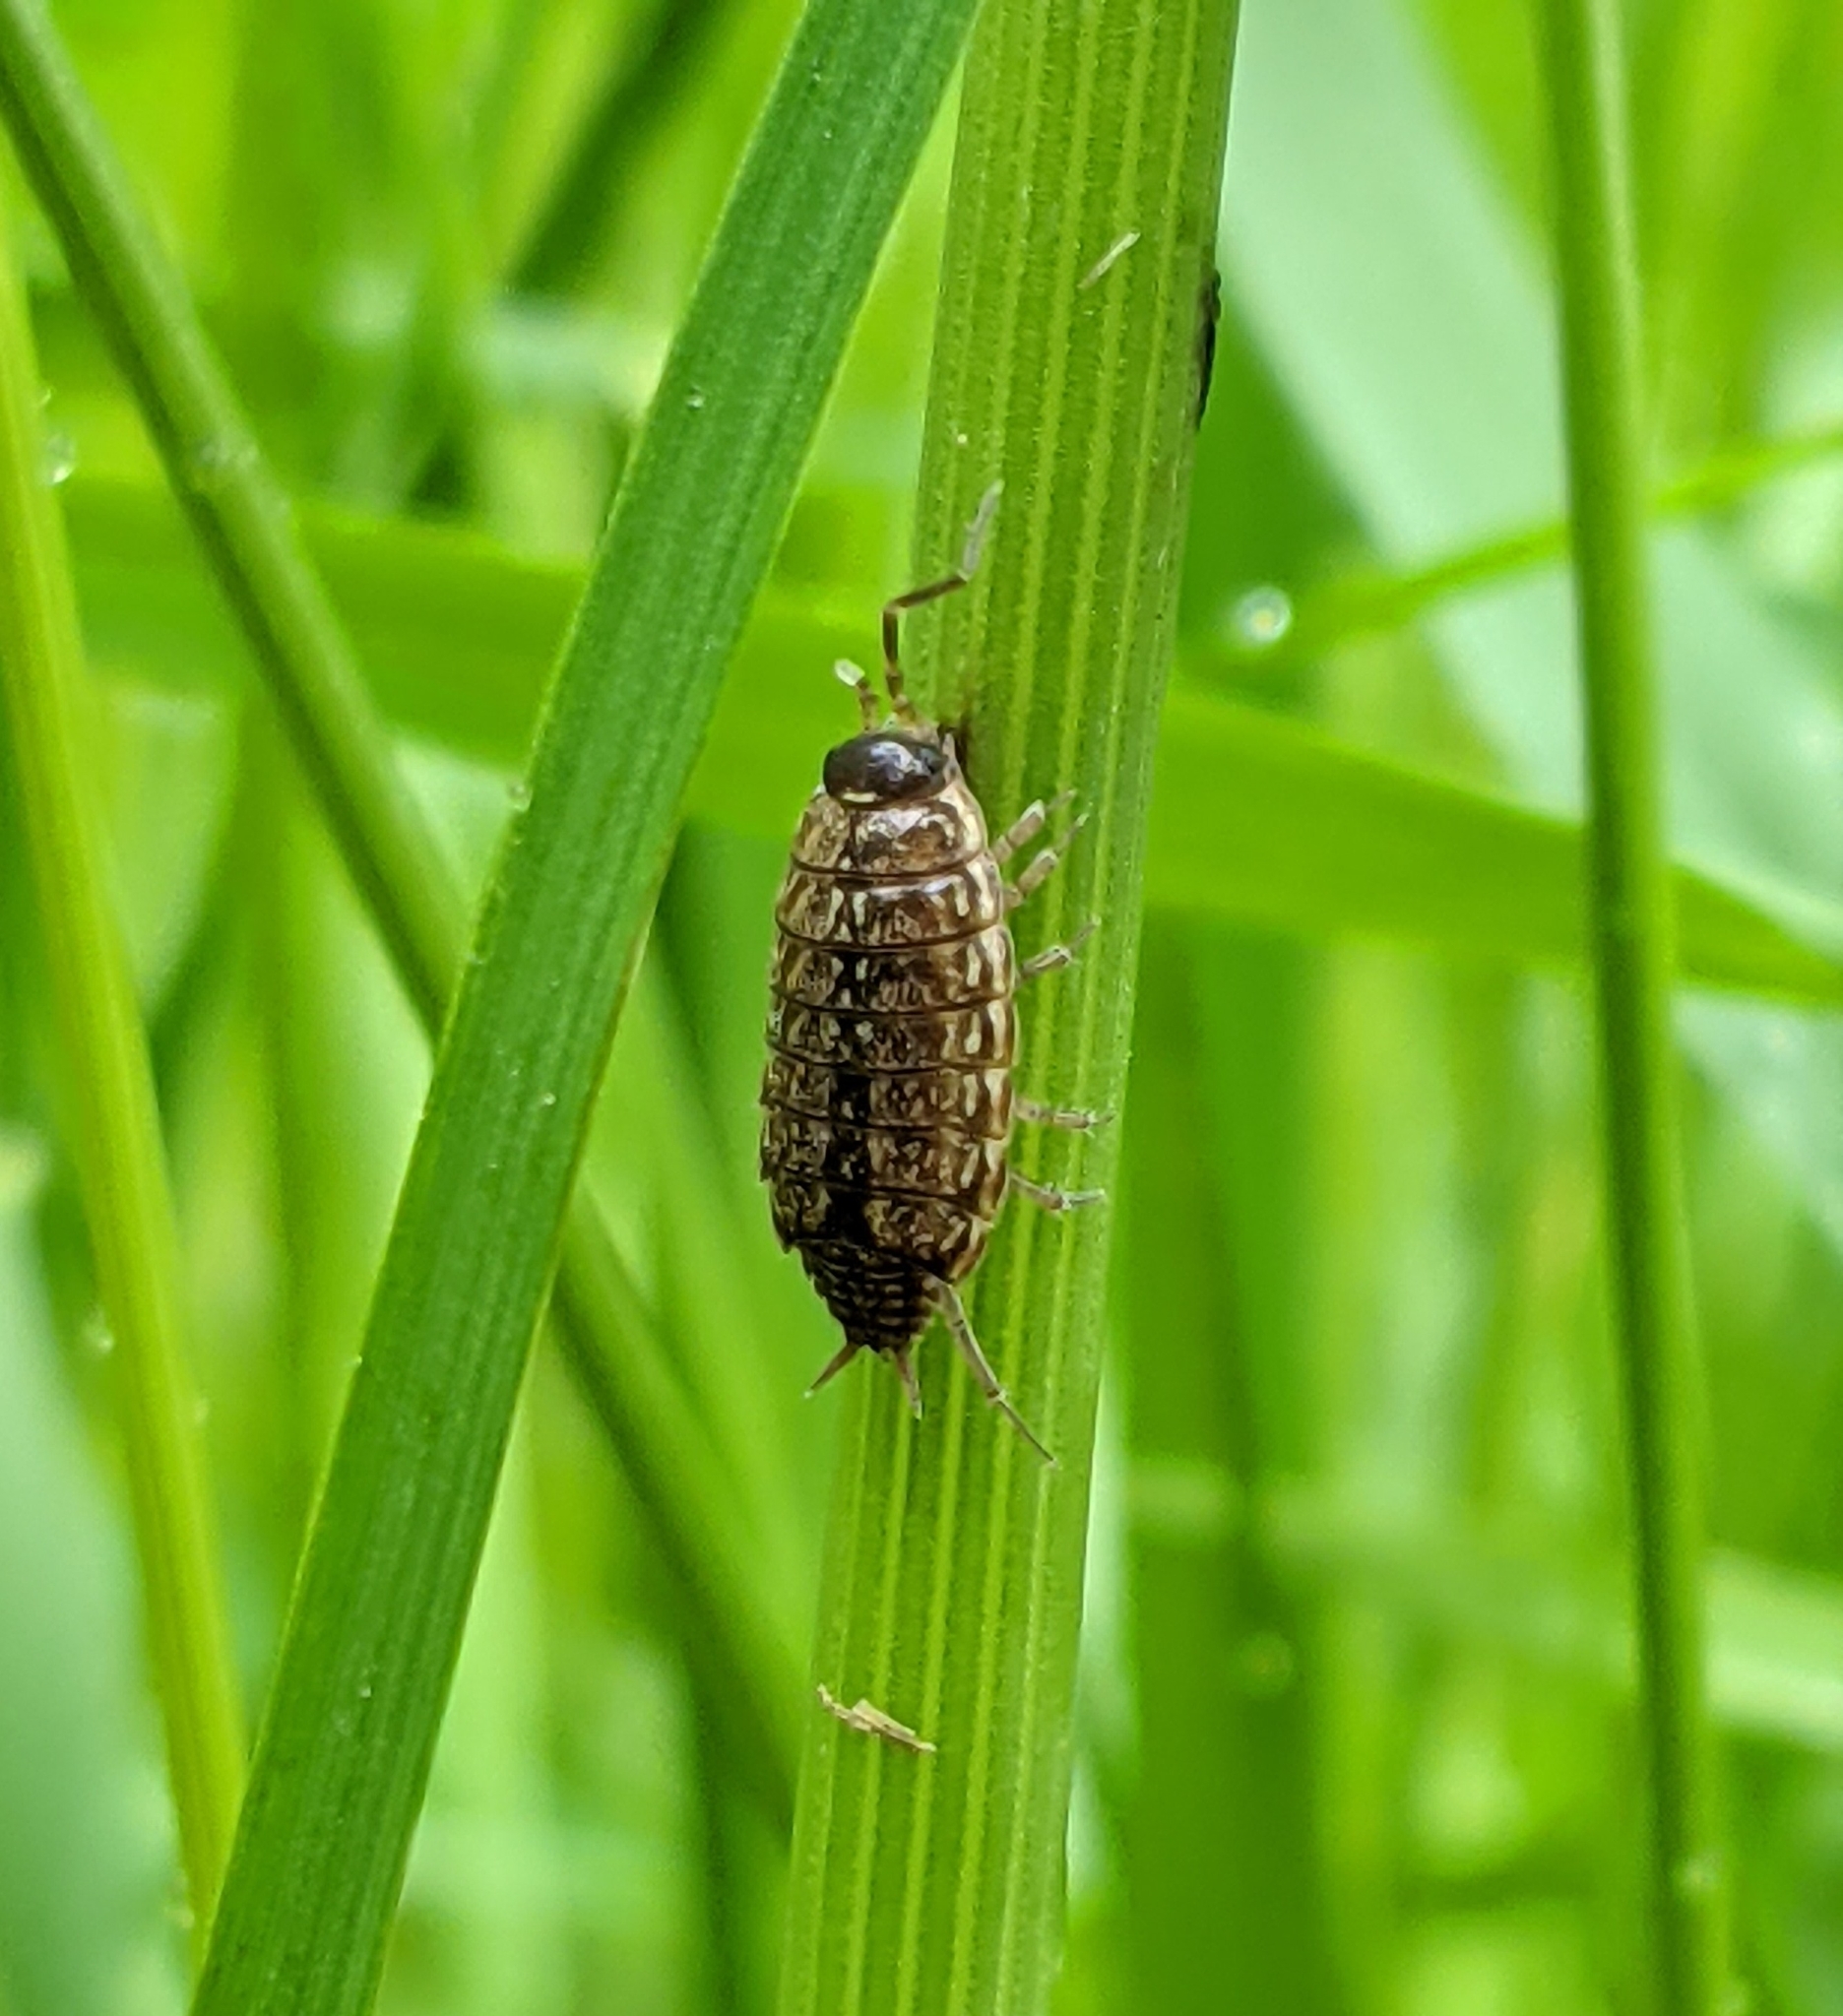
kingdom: Animalia
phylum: Arthropoda
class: Malacostraca
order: Isopoda
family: Philosciidae
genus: Philoscia
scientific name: Philoscia muscorum
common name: Common striped woodlouse
